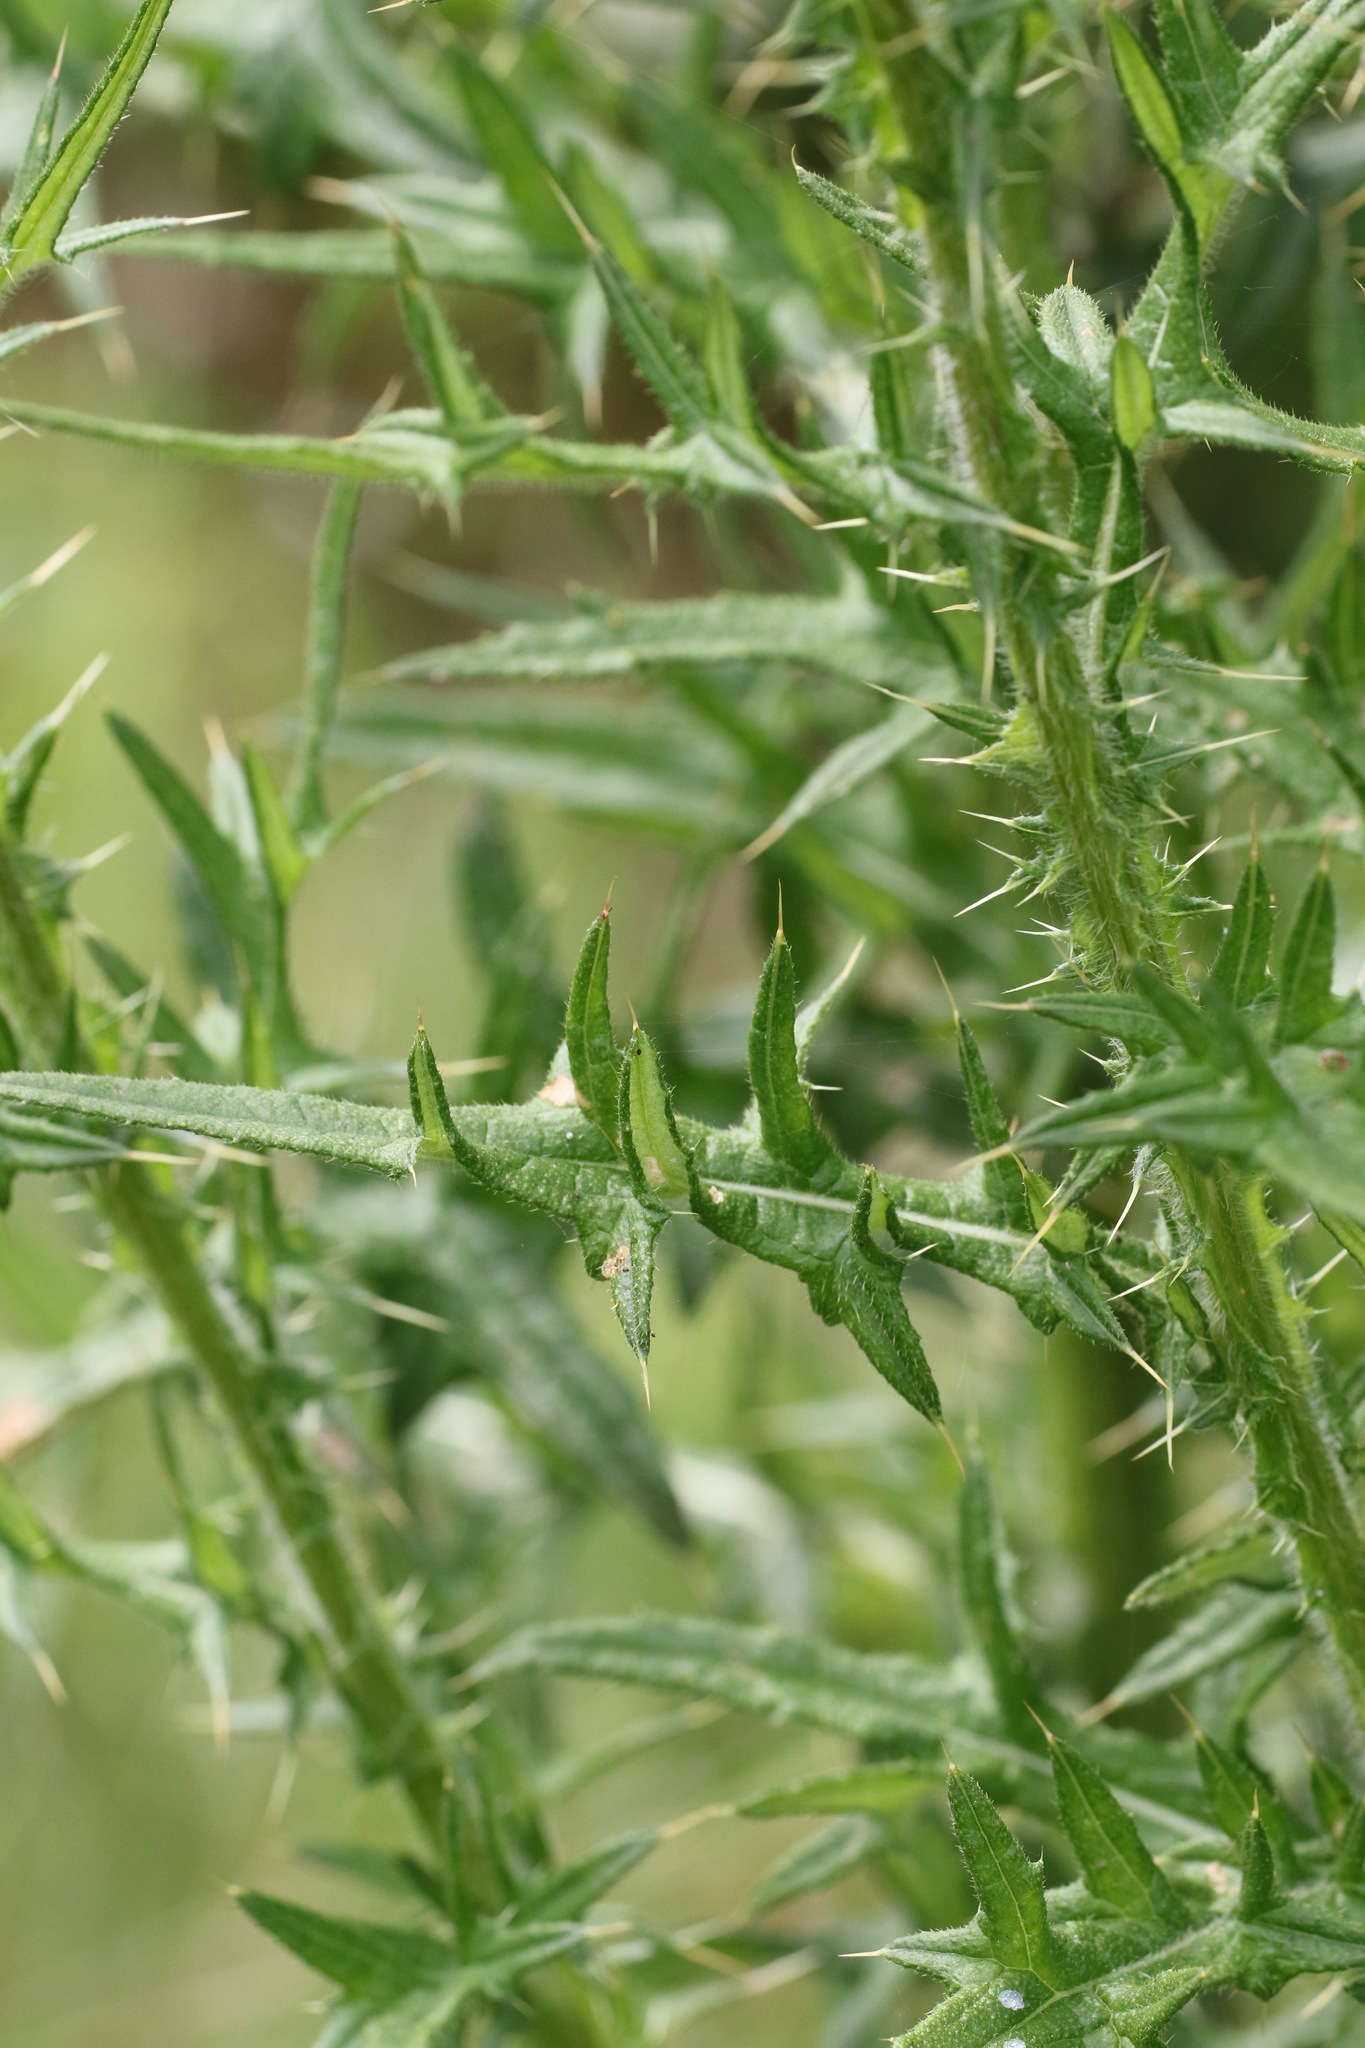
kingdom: Plantae
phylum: Tracheophyta
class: Magnoliopsida
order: Asterales
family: Asteraceae
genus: Cirsium
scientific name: Cirsium vulgare
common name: Bull thistle
